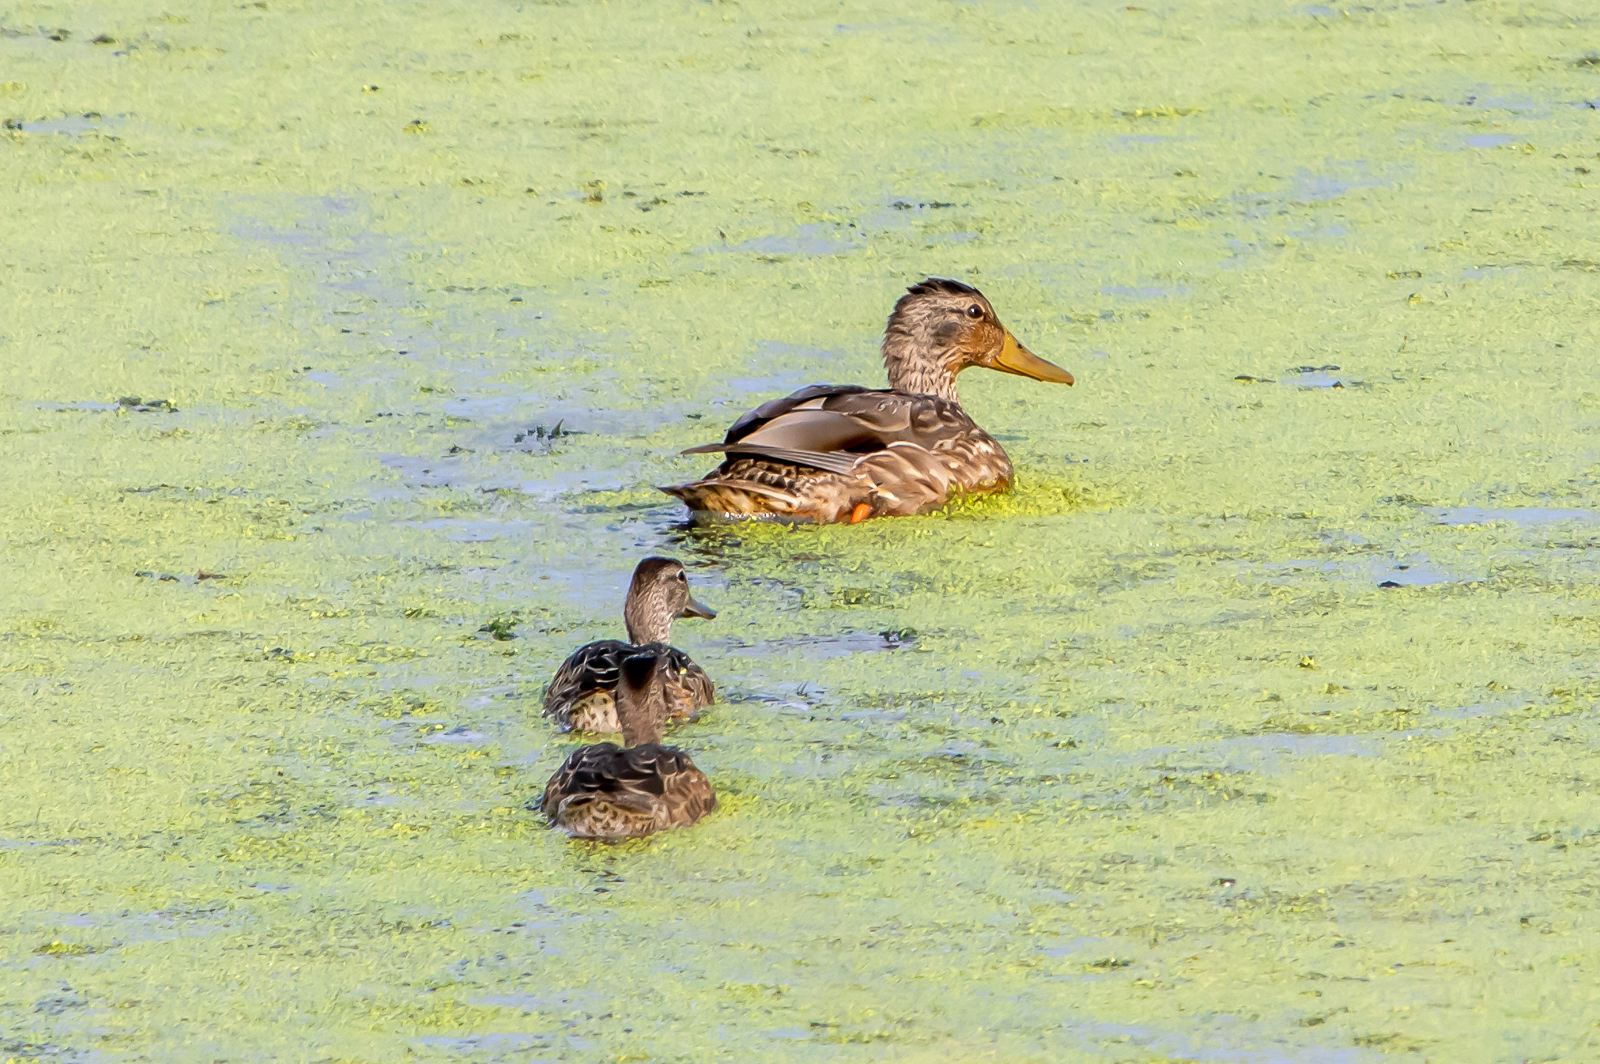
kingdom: Animalia
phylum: Chordata
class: Aves
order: Anseriformes
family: Anatidae
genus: Anas
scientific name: Anas crecca
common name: Eurasian teal
